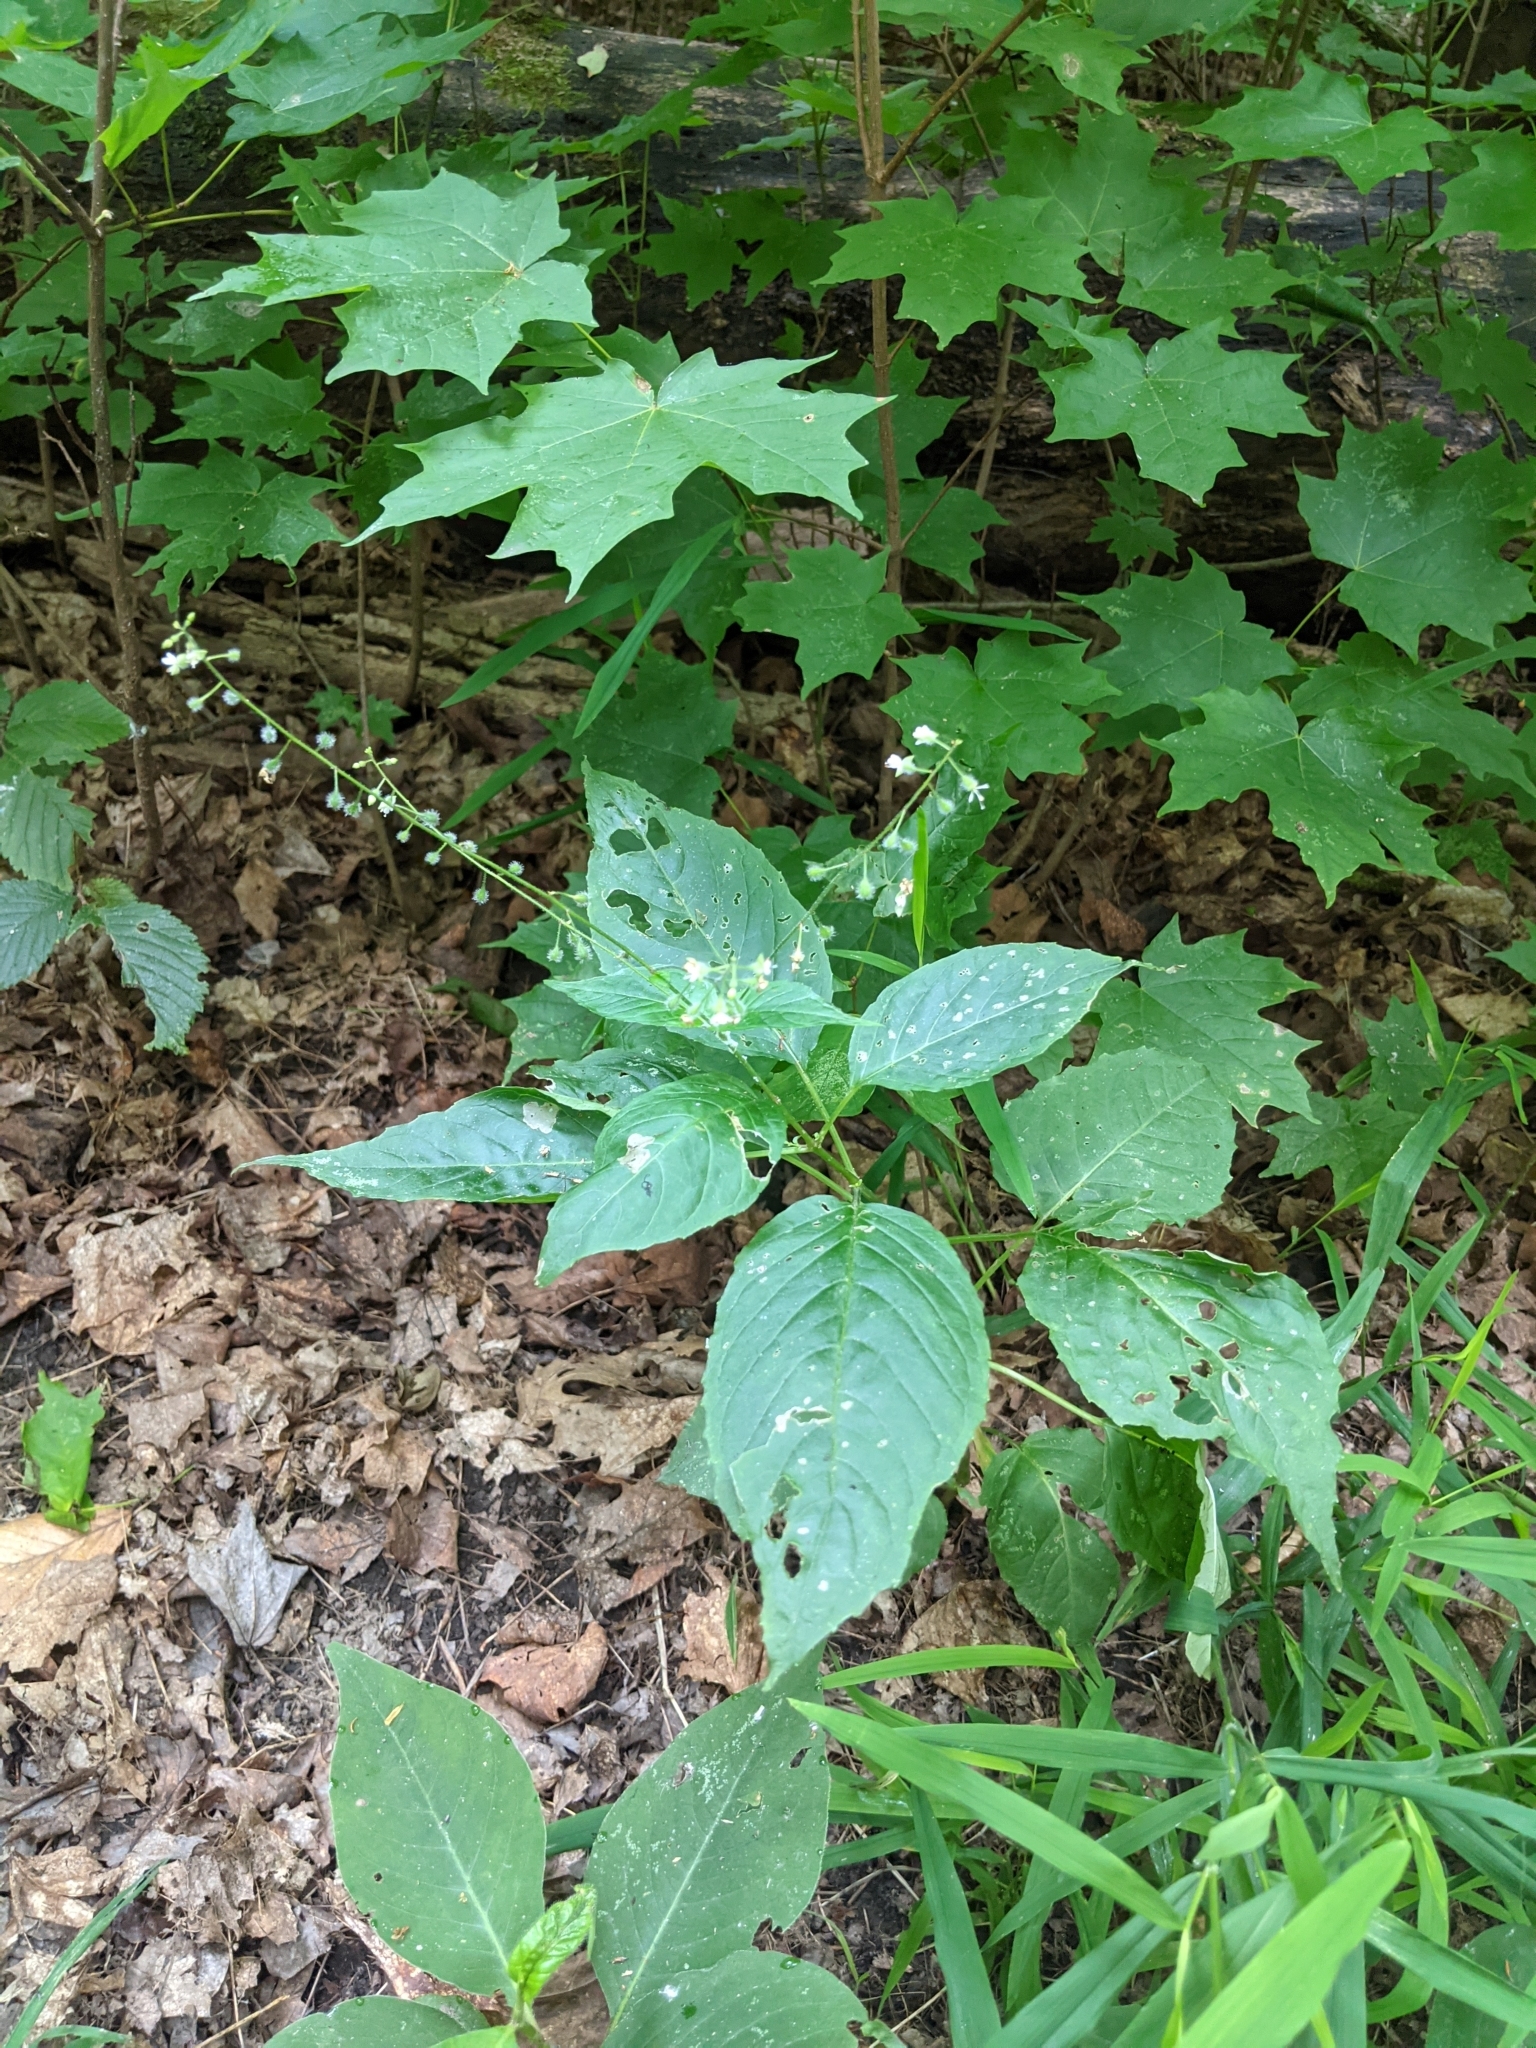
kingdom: Plantae
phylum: Tracheophyta
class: Magnoliopsida
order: Myrtales
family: Onagraceae
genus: Circaea
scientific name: Circaea canadensis
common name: Broad-leaved enchanter's nightshade
